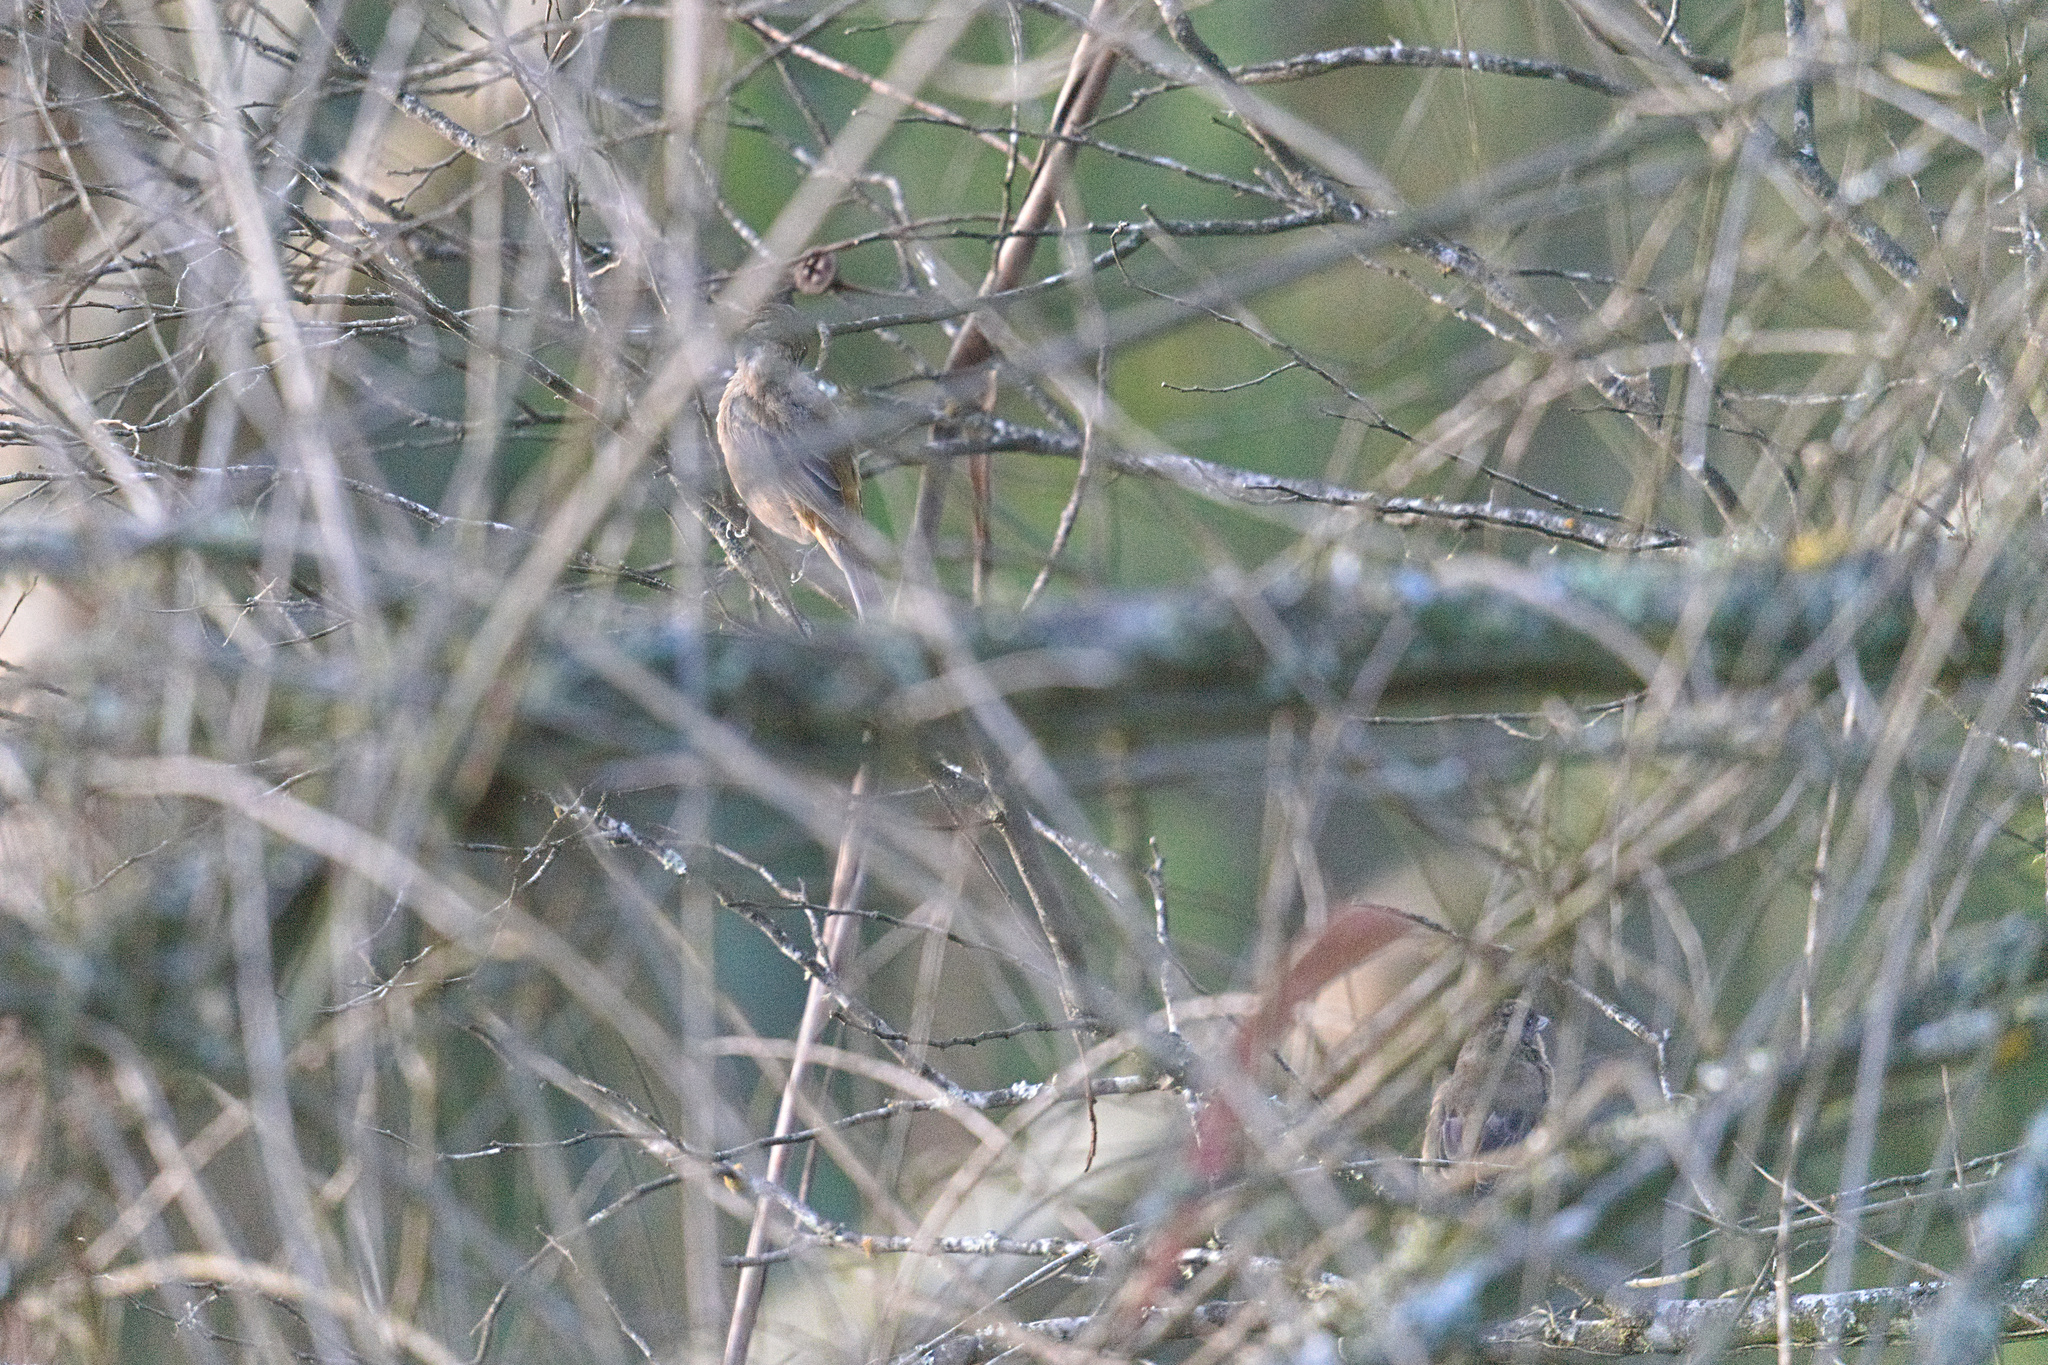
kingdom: Animalia
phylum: Chordata
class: Aves
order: Passeriformes
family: Thraupidae
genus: Rauenia
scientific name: Rauenia bonariensis
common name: Blue-and-yellow tanager
